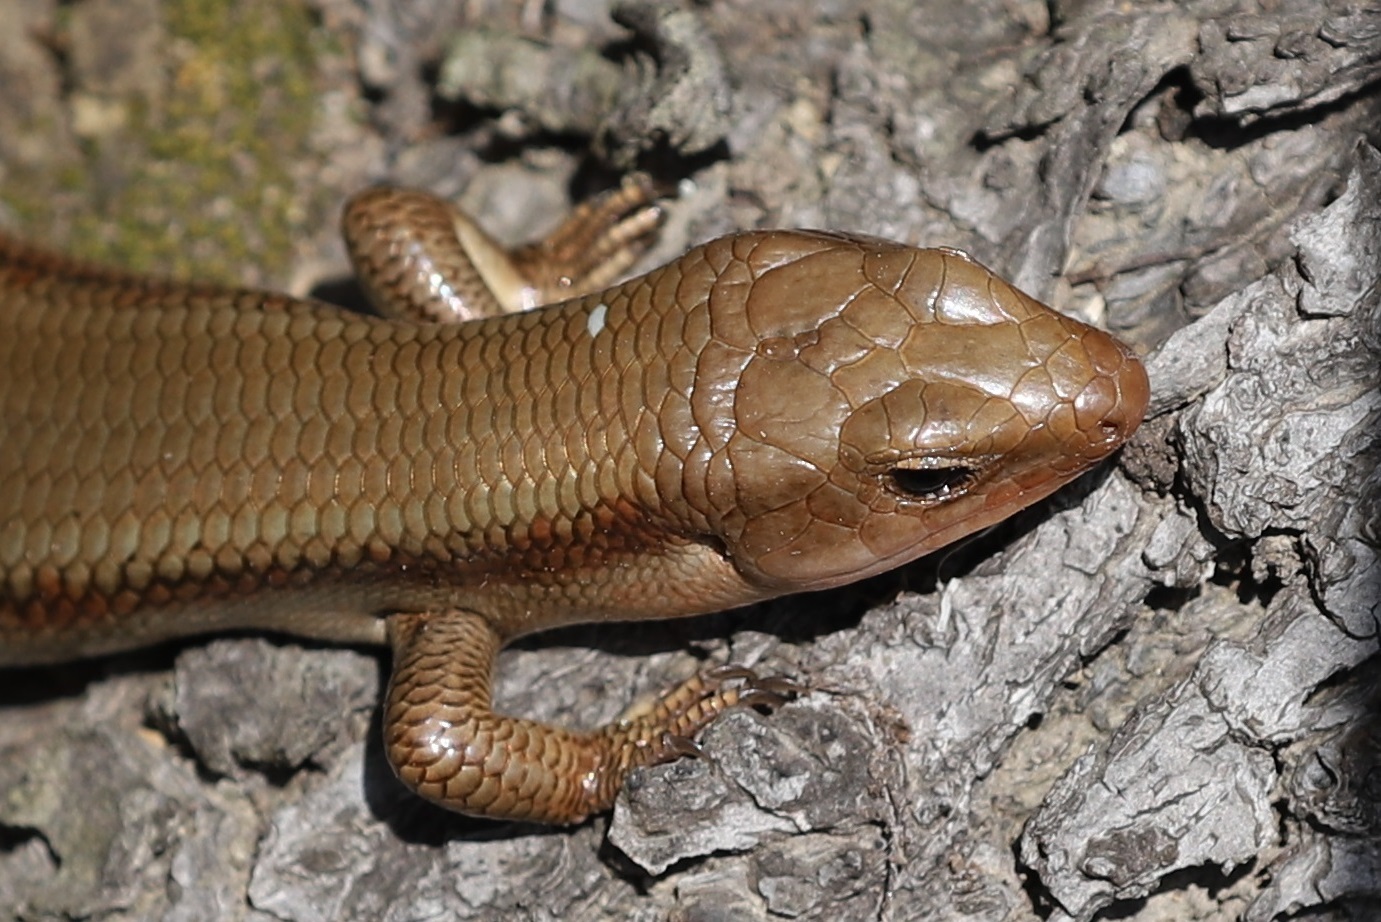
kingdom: Animalia
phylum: Chordata
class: Squamata
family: Scincidae
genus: Plestiodon
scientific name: Plestiodon latiscutatus
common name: Far eastern skink
